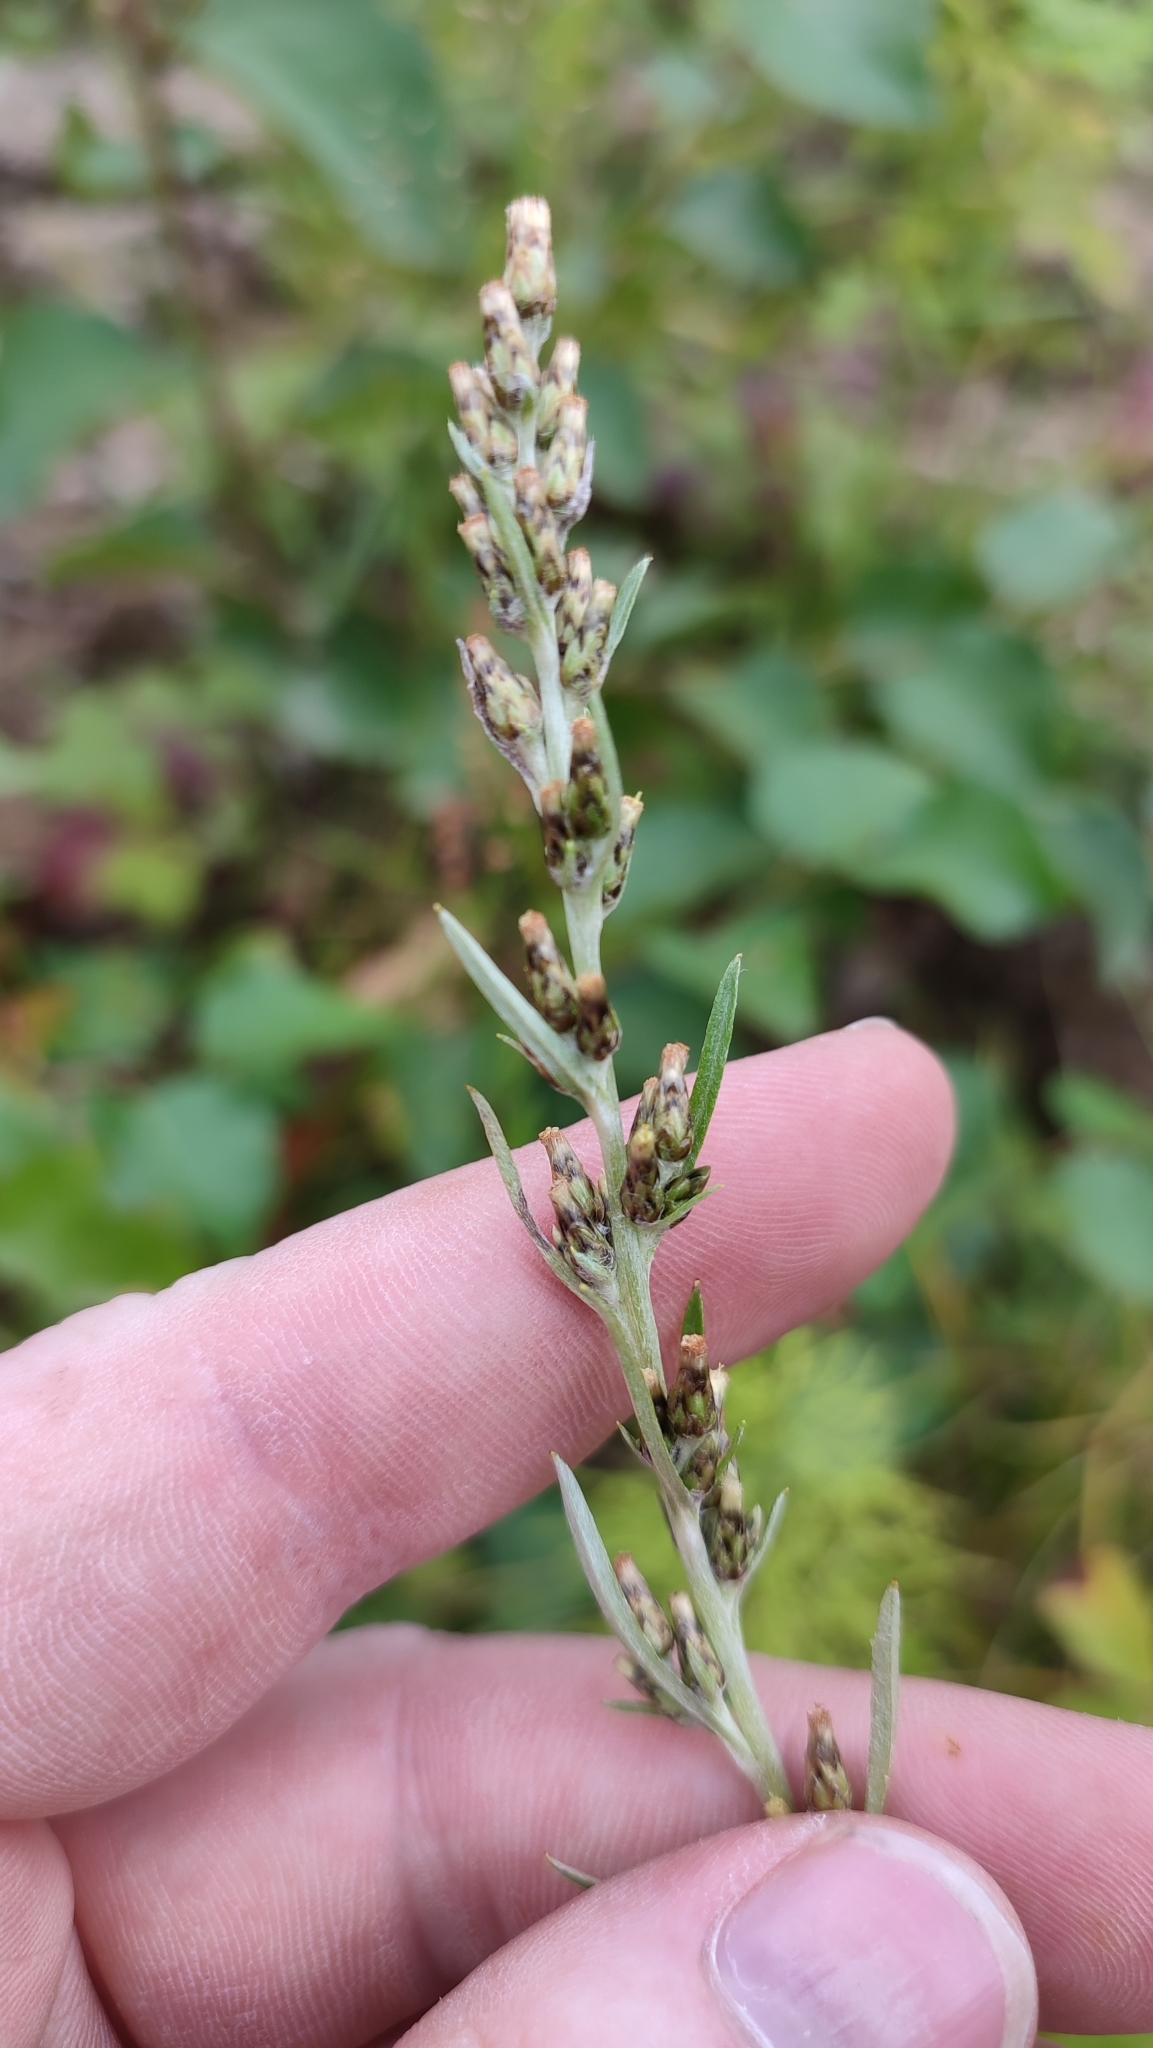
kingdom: Plantae
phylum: Tracheophyta
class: Magnoliopsida
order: Asterales
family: Asteraceae
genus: Omalotheca
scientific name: Omalotheca sylvatica
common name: Heath cudweed
